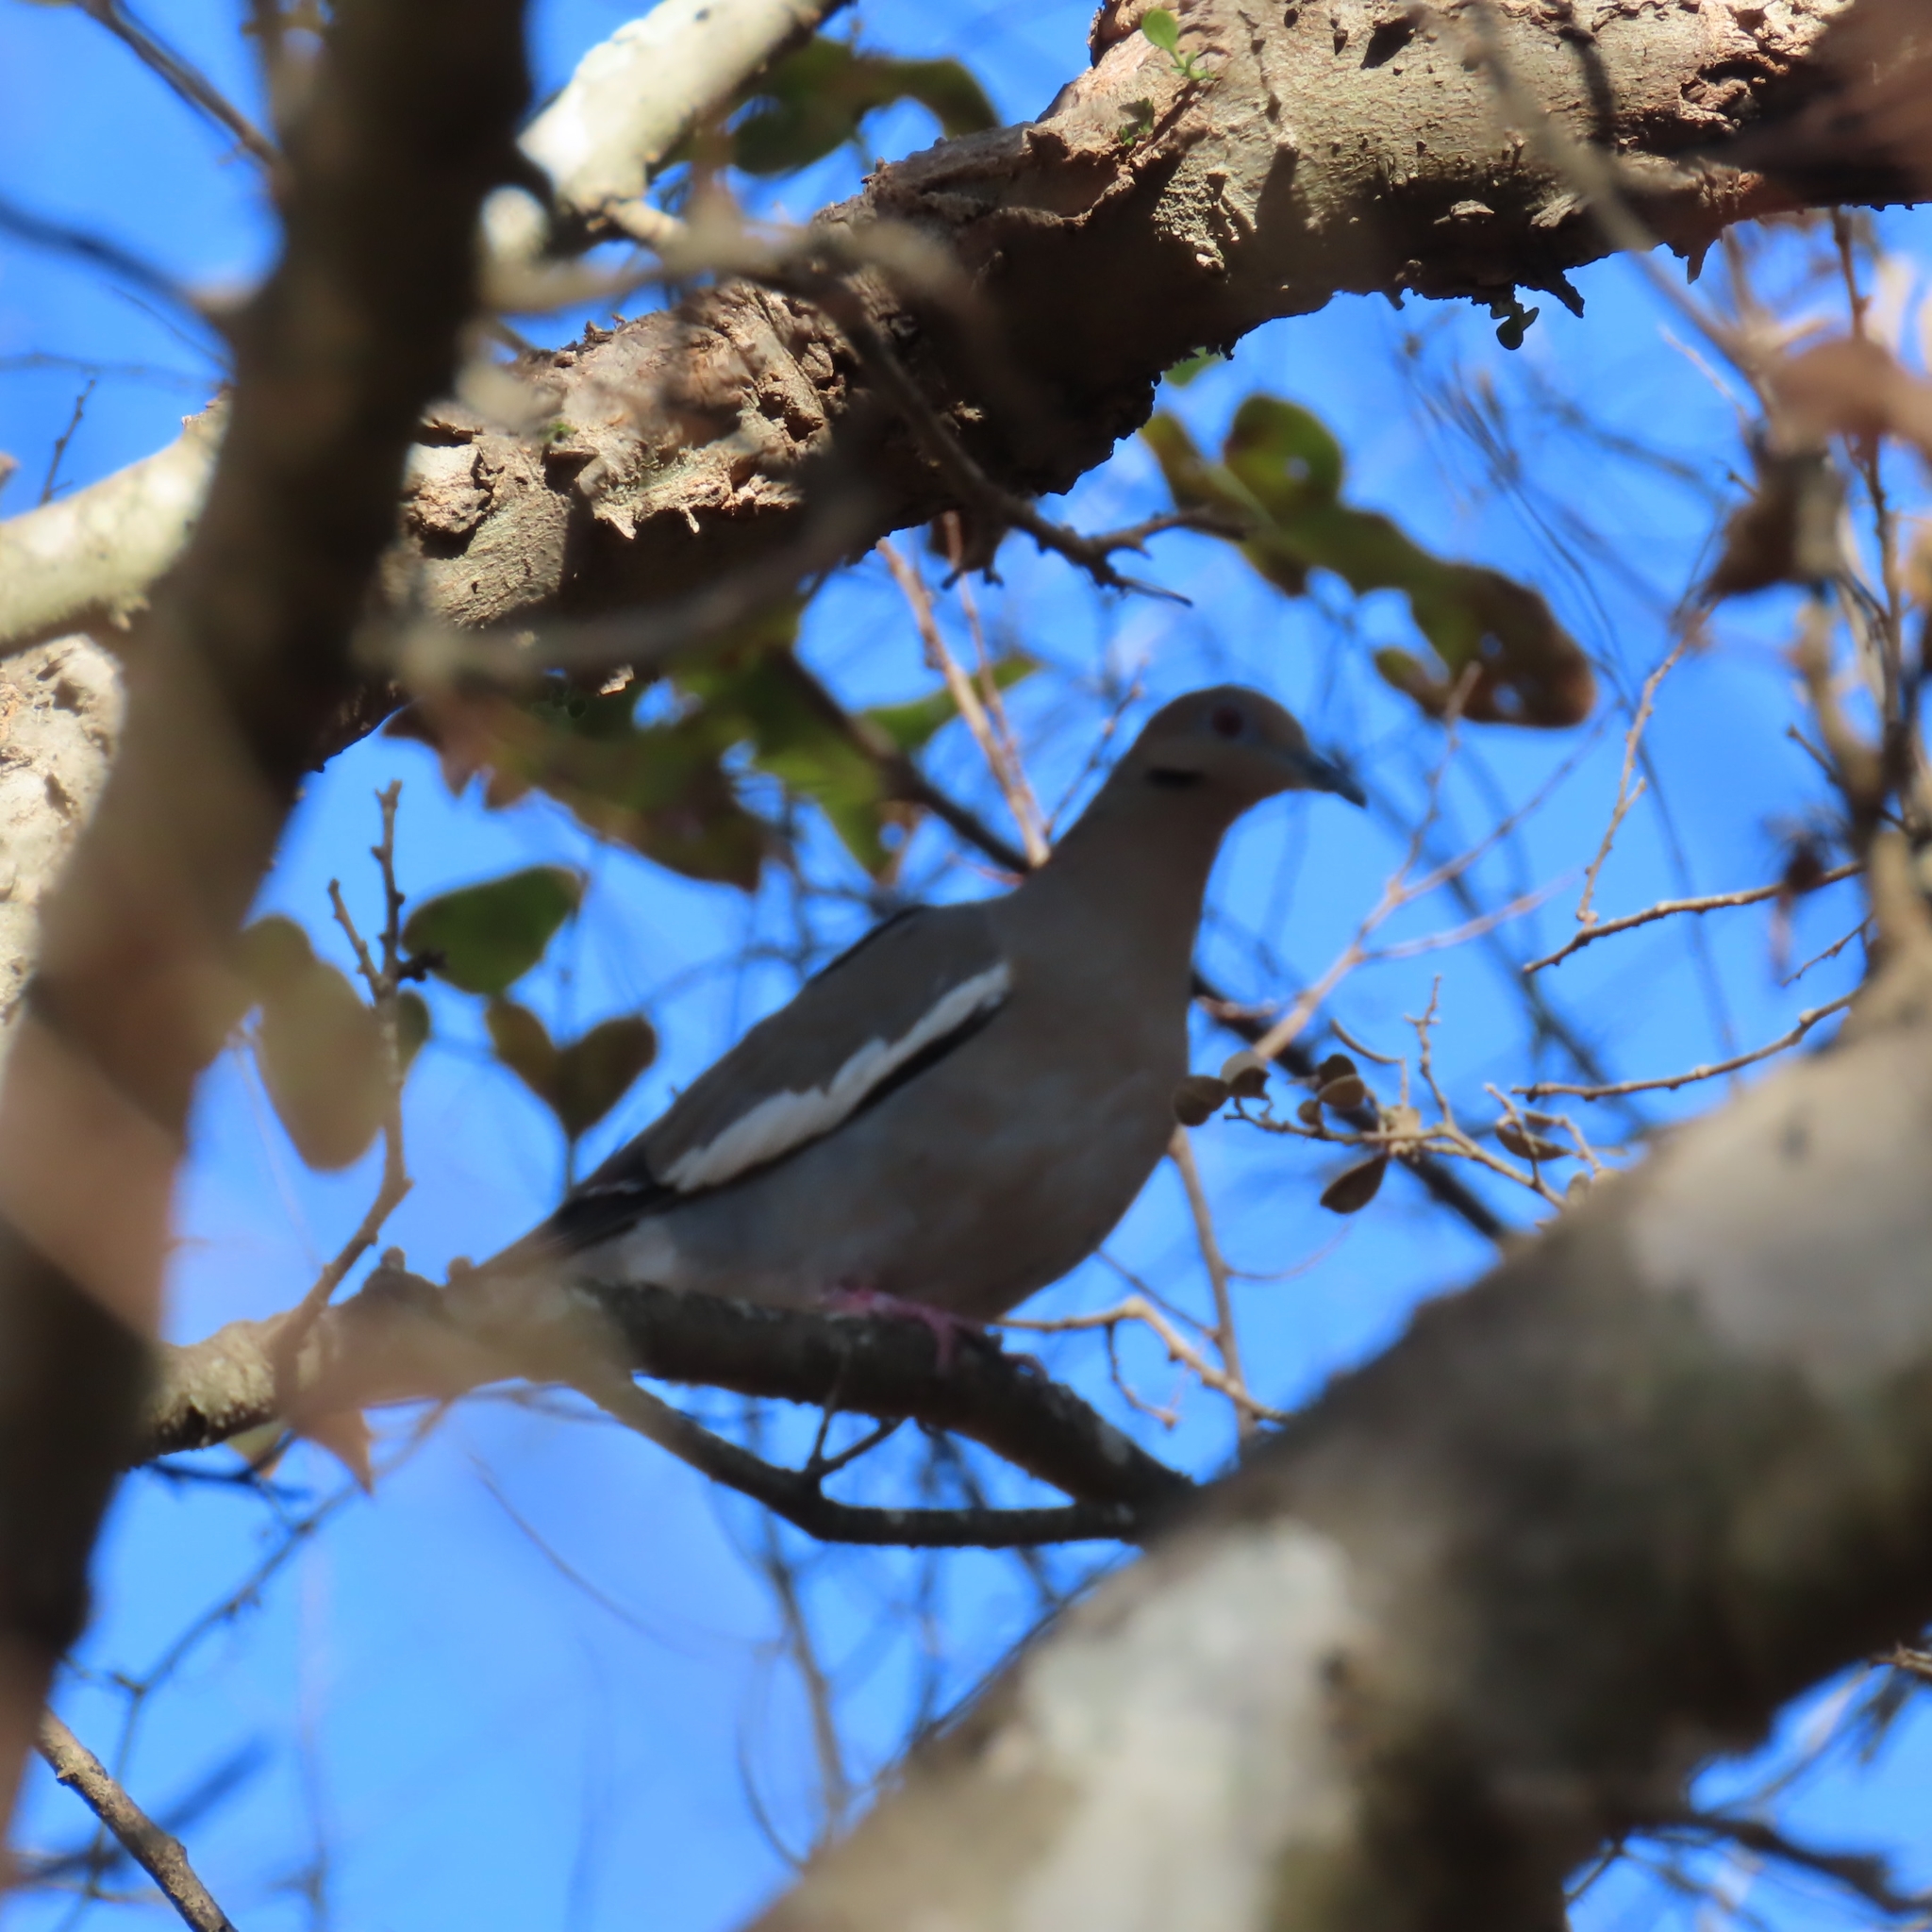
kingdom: Animalia
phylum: Chordata
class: Aves
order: Columbiformes
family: Columbidae
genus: Zenaida
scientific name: Zenaida asiatica
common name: White-winged dove
